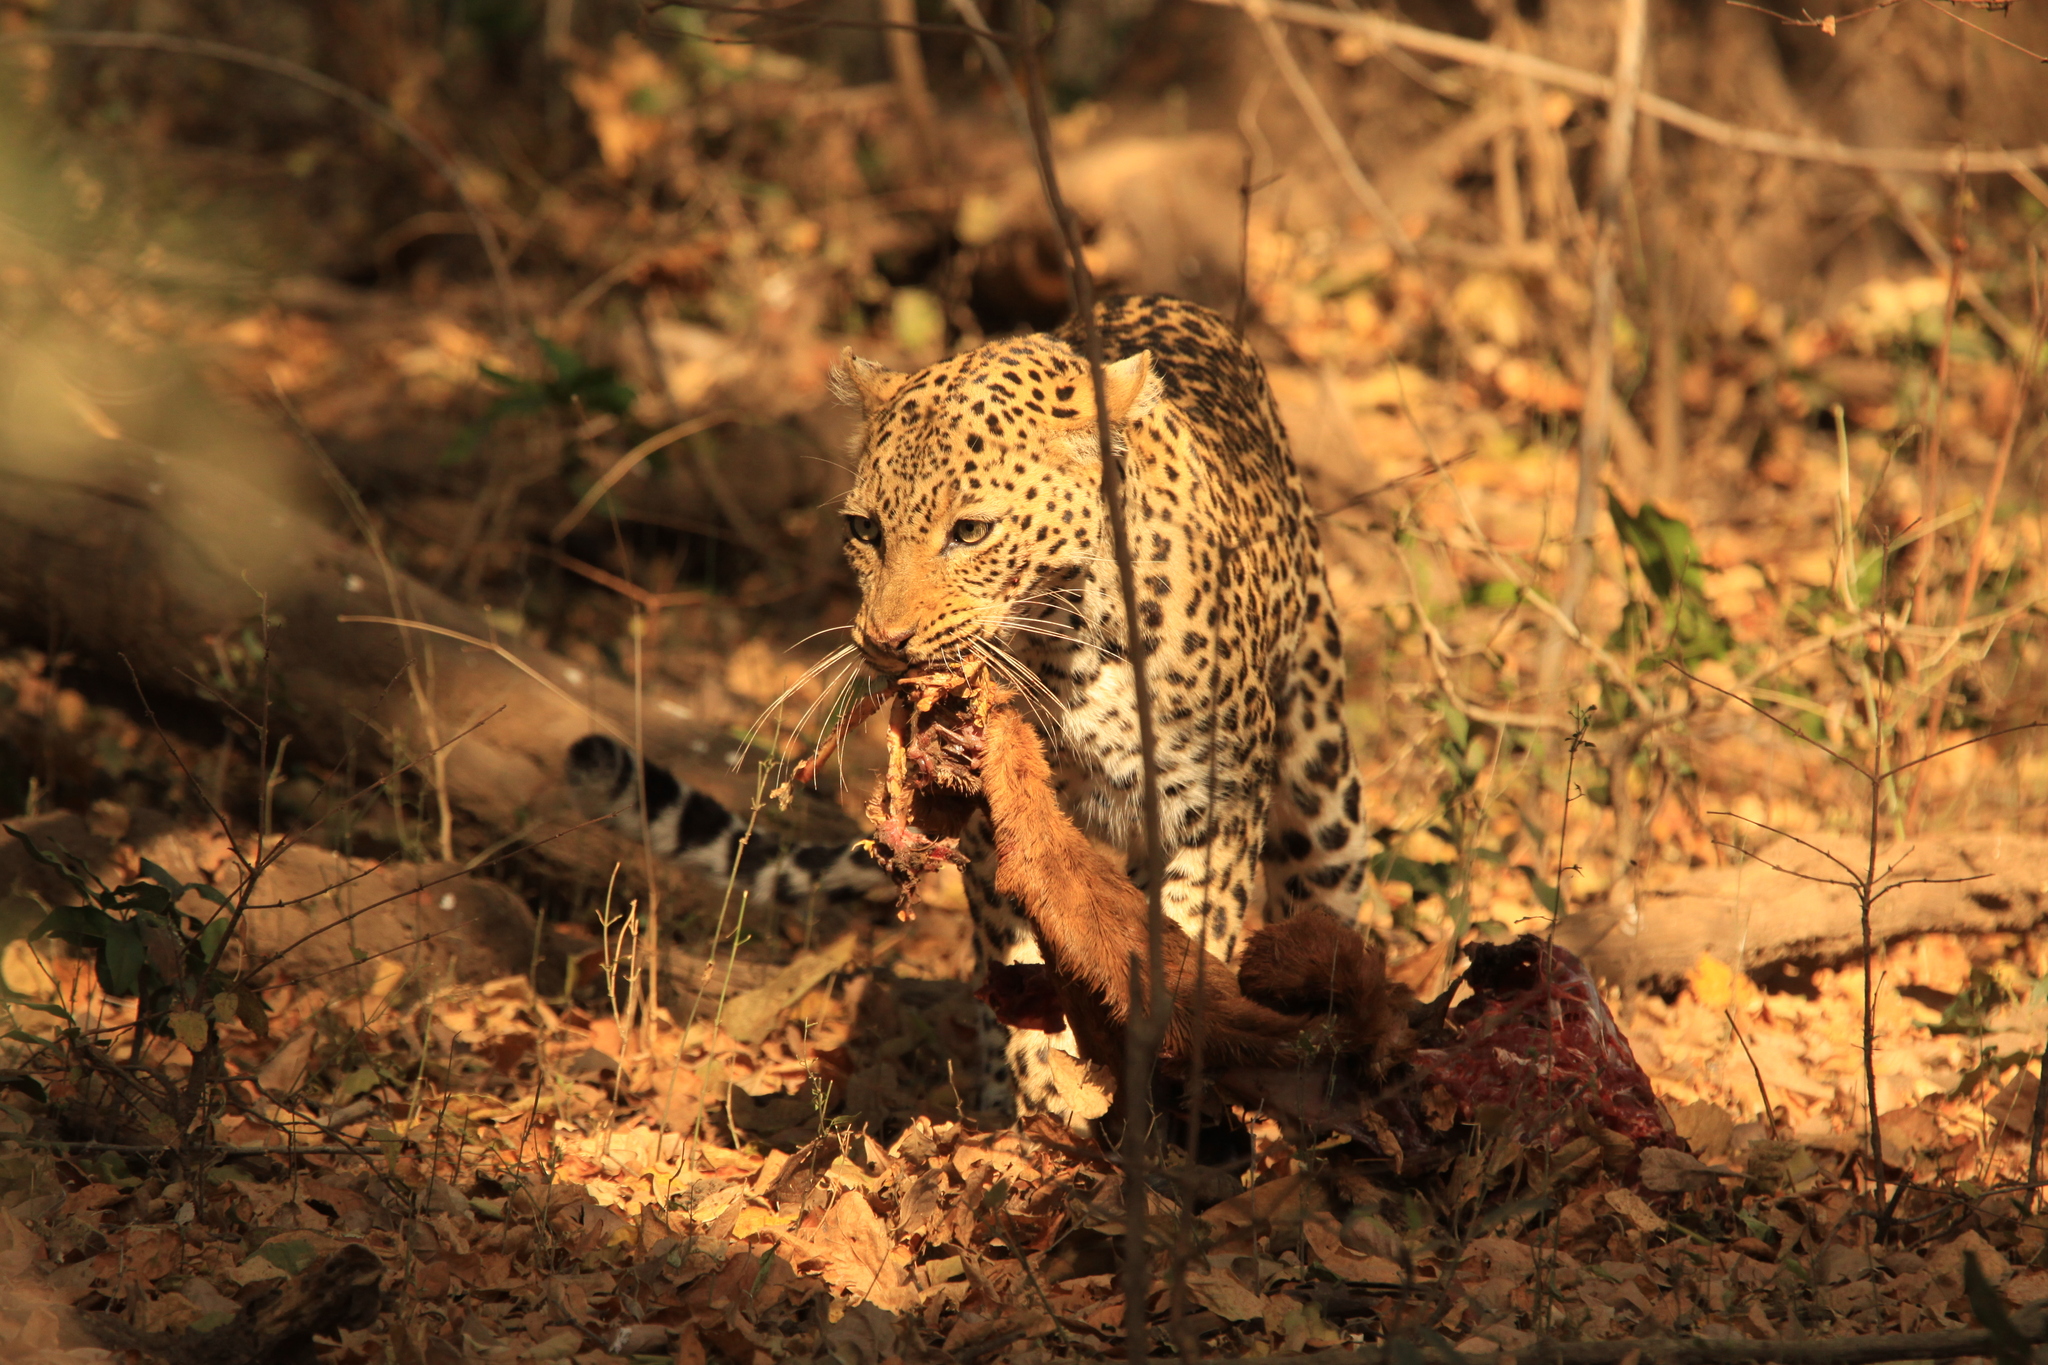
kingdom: Animalia
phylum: Chordata
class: Mammalia
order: Carnivora
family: Felidae
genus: Panthera
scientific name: Panthera pardus
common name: Leopard
